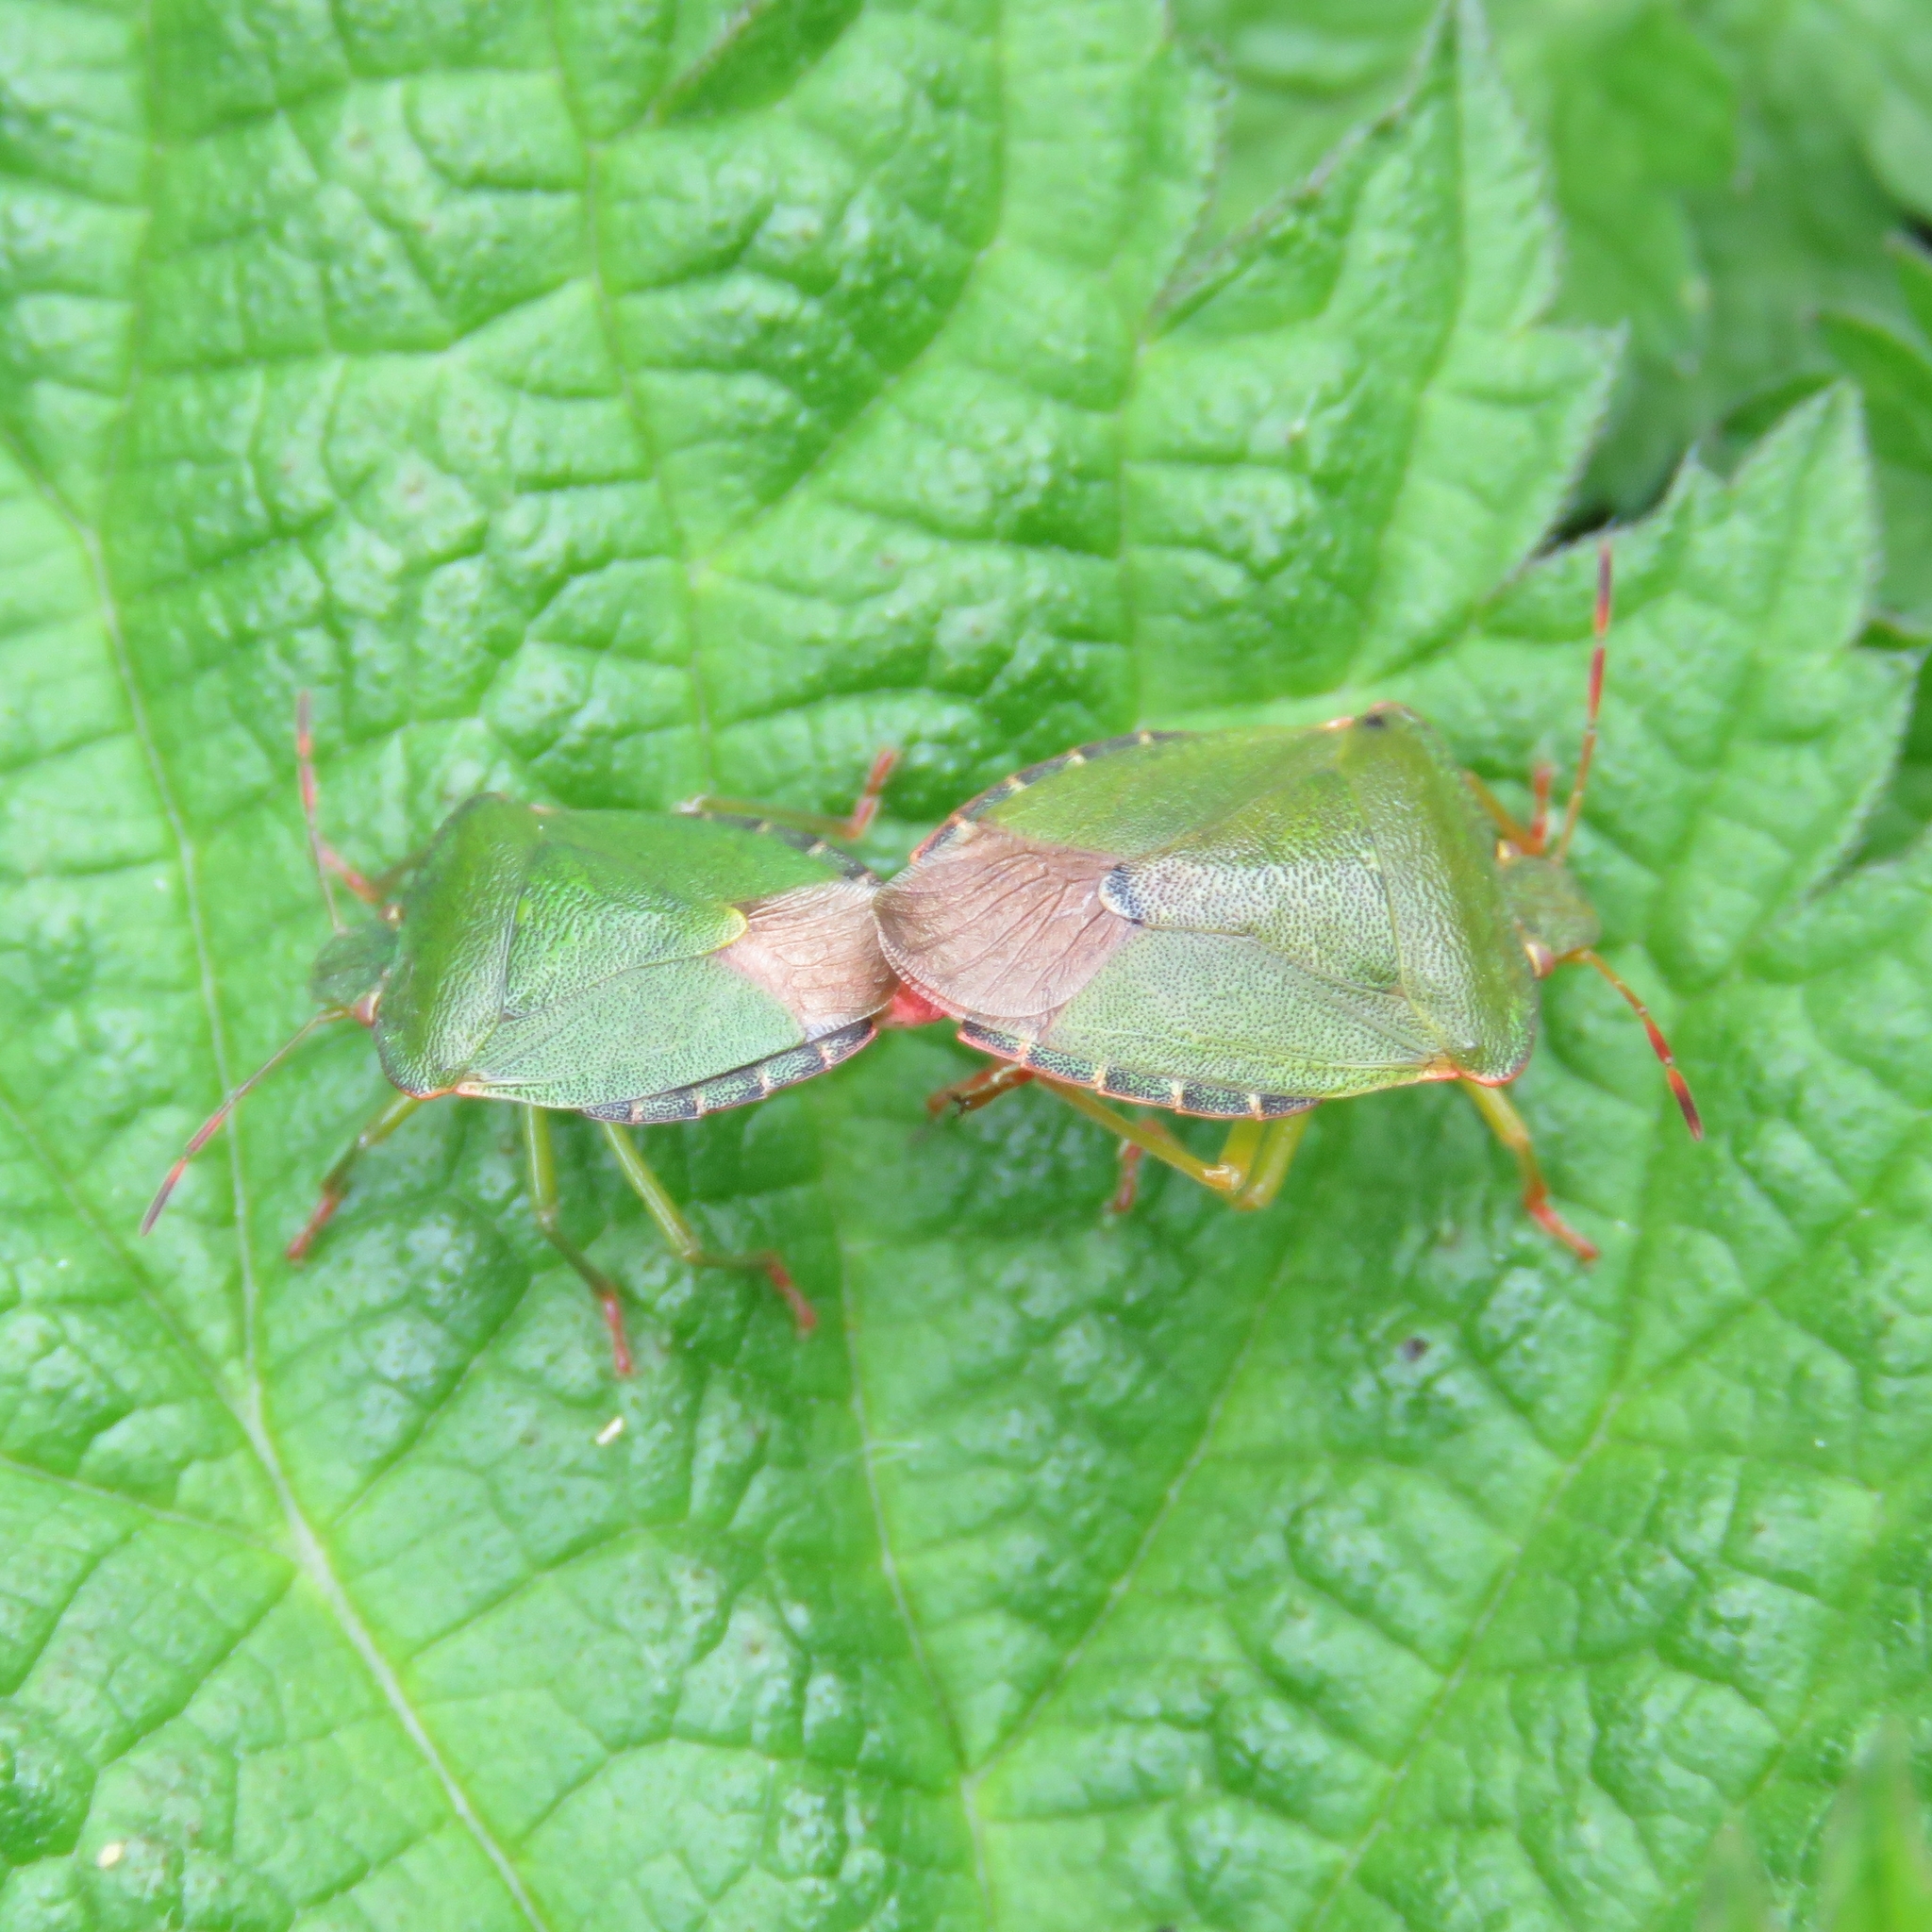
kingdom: Animalia
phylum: Arthropoda
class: Insecta
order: Hemiptera
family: Pentatomidae
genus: Palomena
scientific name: Palomena prasina
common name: Green shieldbug
